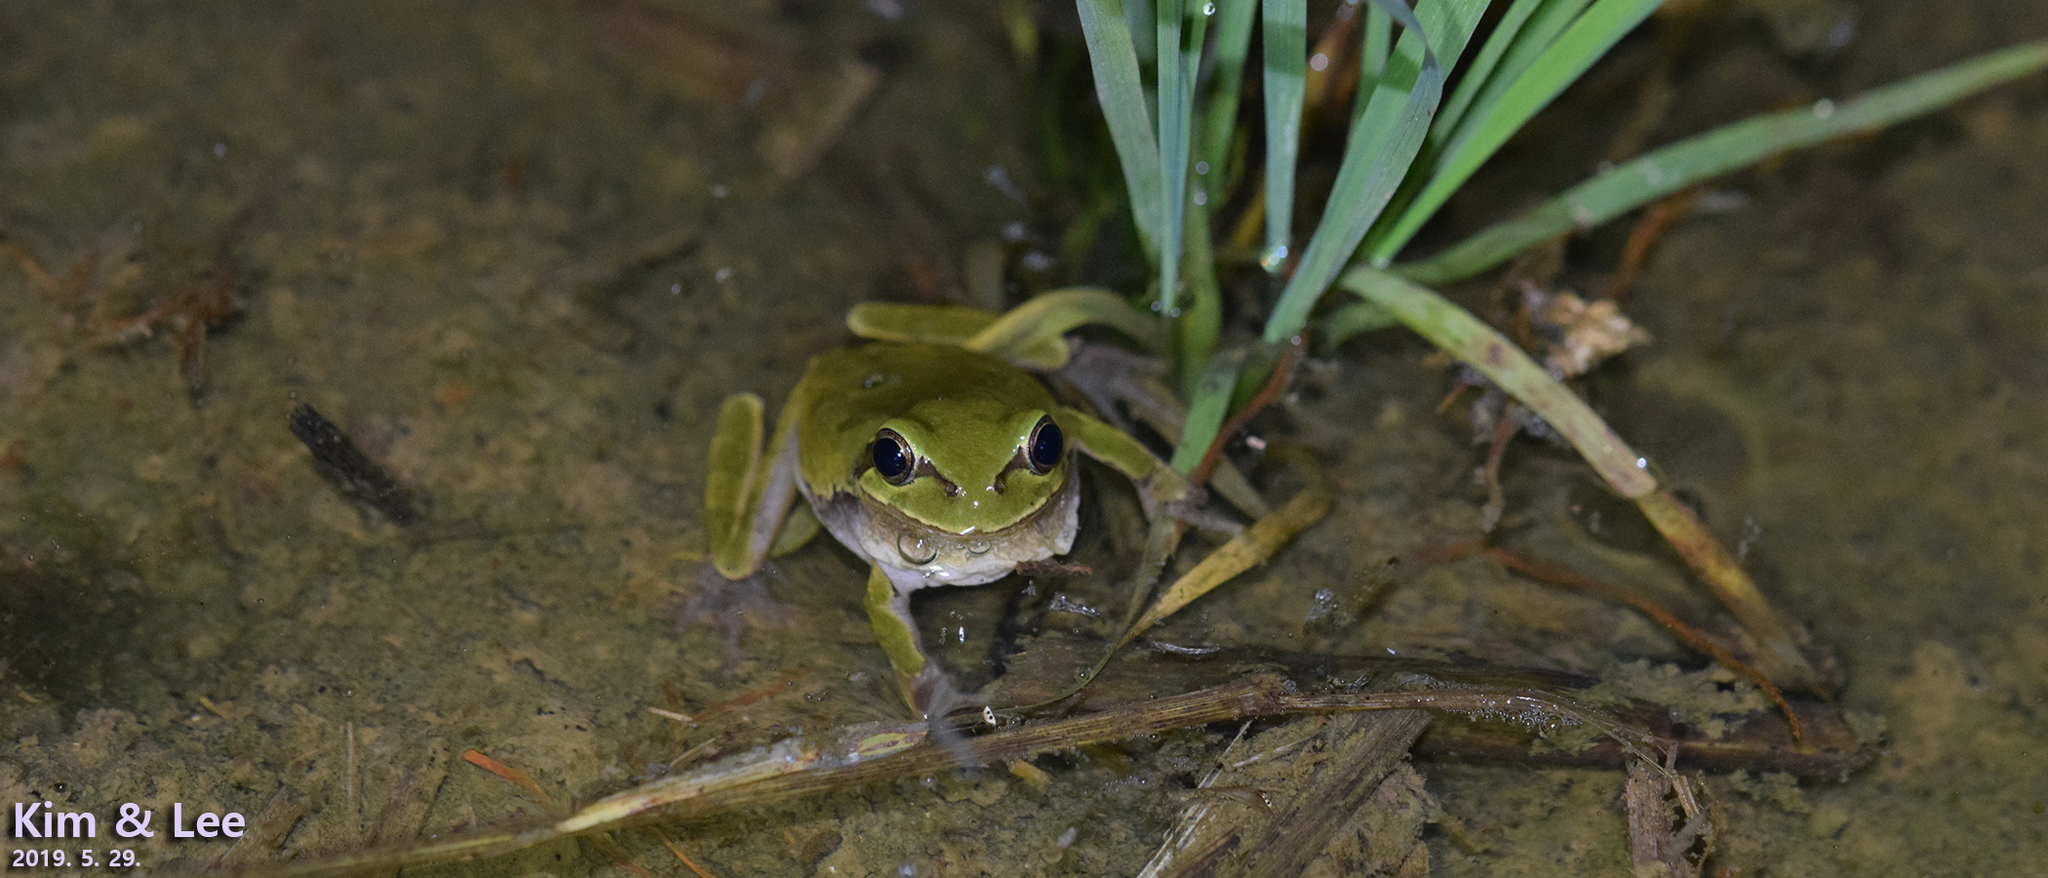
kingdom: Animalia
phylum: Chordata
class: Amphibia
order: Anura
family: Hylidae
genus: Dryophytes
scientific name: Dryophytes japonicus
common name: Japanese treefrog
